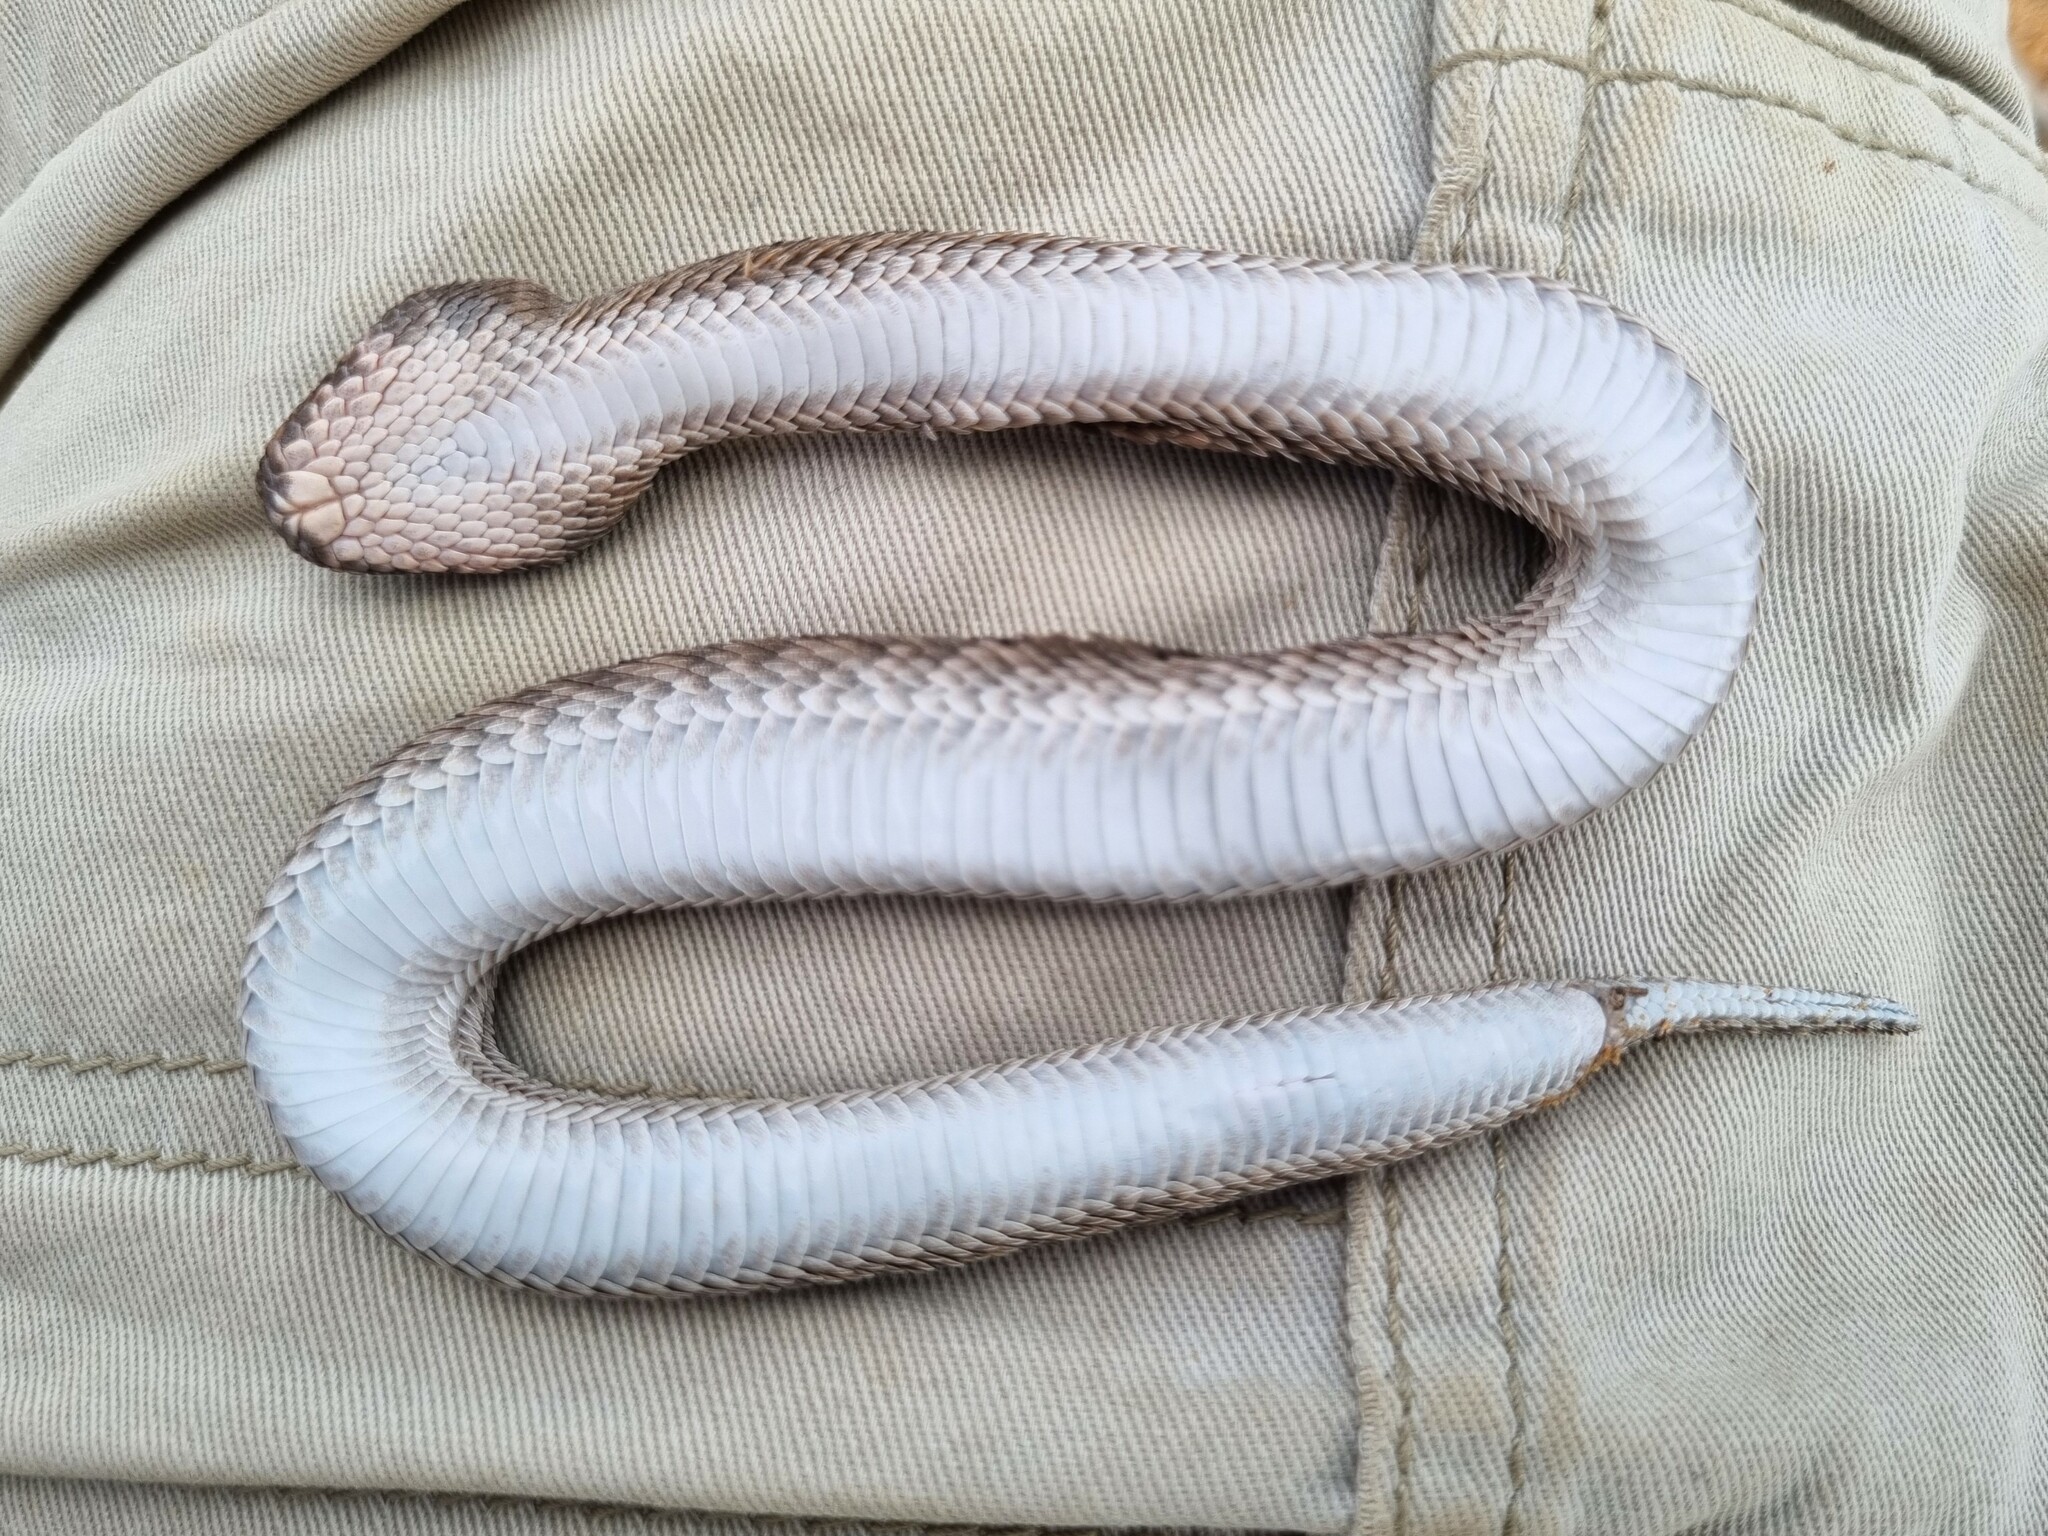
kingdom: Animalia
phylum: Chordata
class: Squamata
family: Viperidae
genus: Bitis
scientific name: Bitis rubida
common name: Red adder
